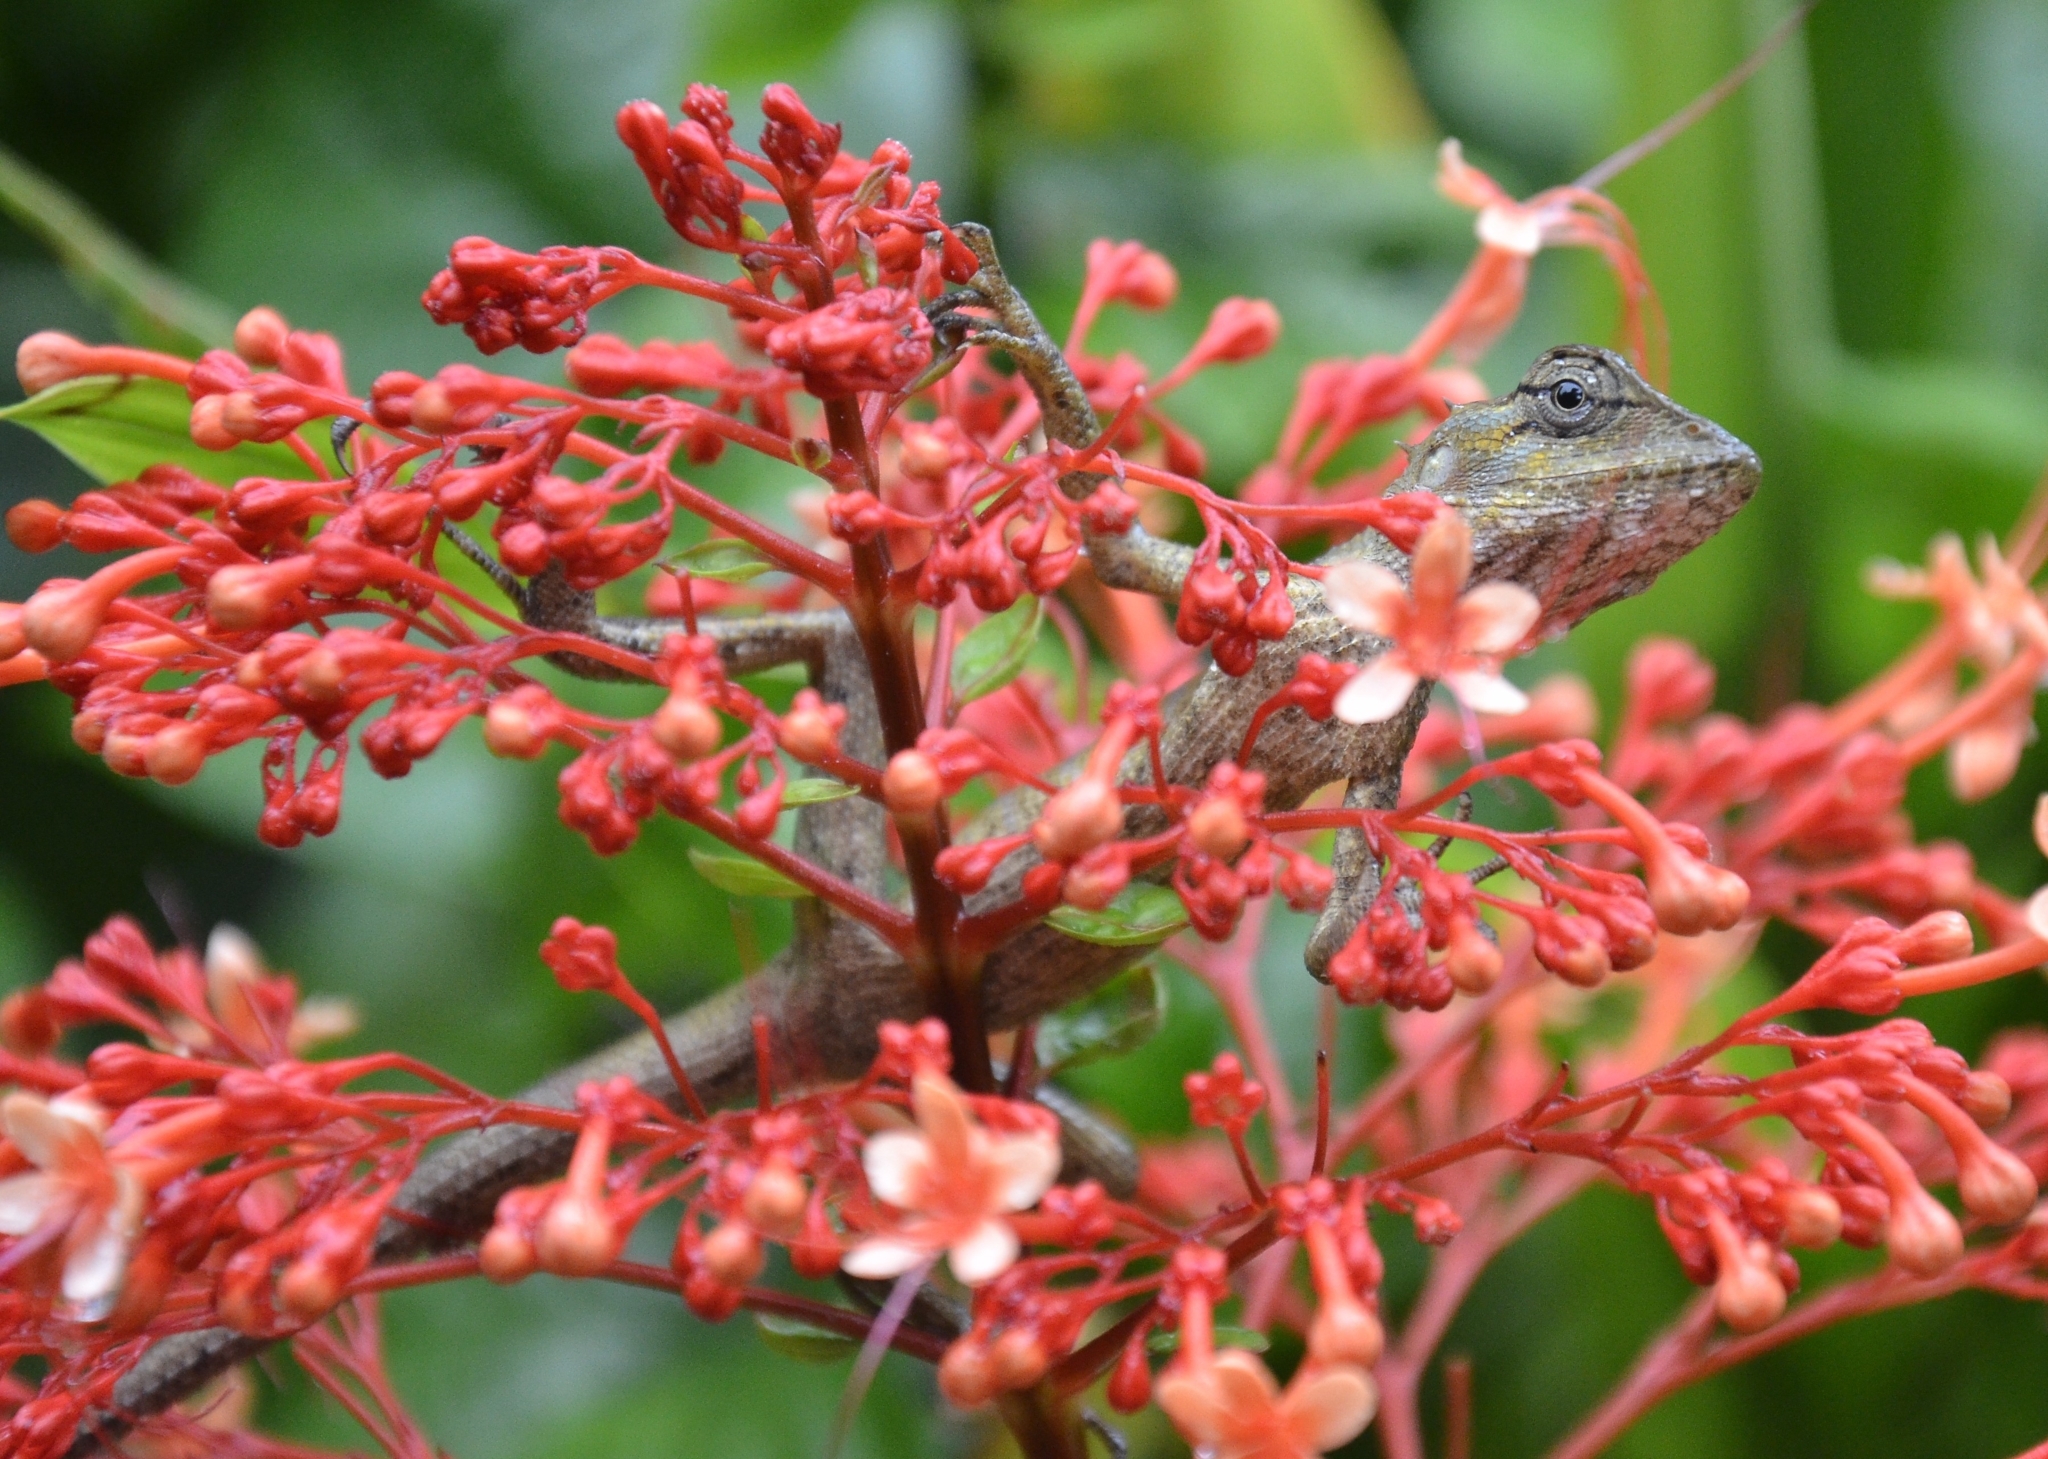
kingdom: Animalia
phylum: Chordata
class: Squamata
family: Agamidae
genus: Calotes
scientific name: Calotes versicolor
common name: Oriental garden lizard
